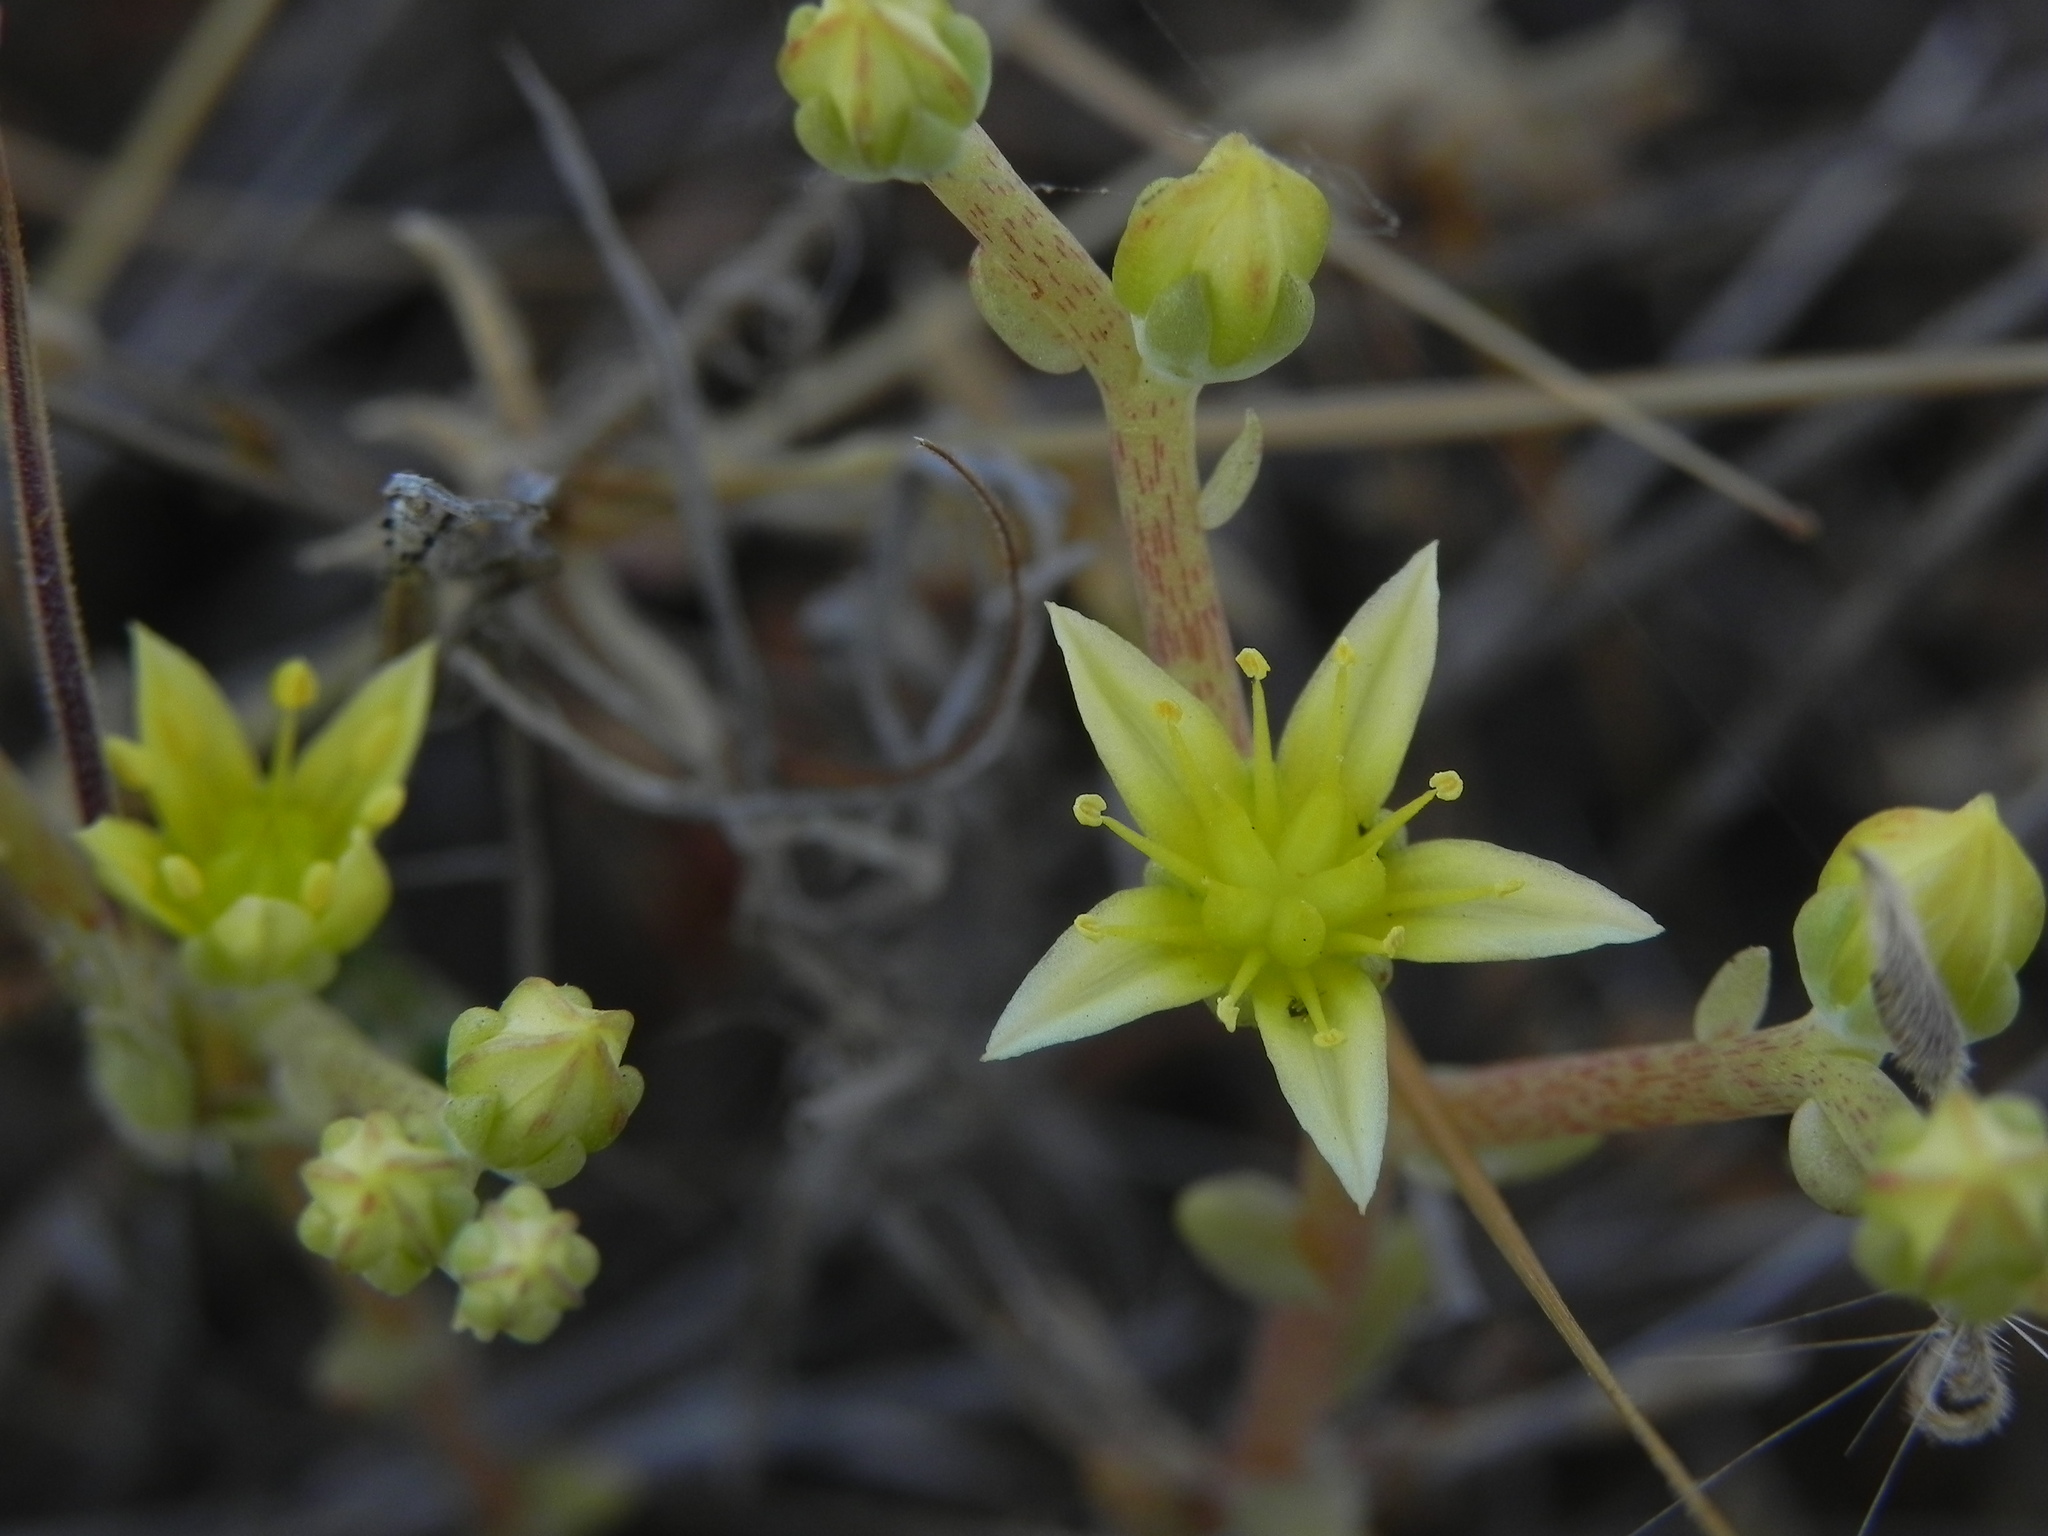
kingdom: Plantae
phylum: Tracheophyta
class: Magnoliopsida
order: Saxifragales
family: Crassulaceae
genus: Dudleya
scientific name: Dudleya variegata
